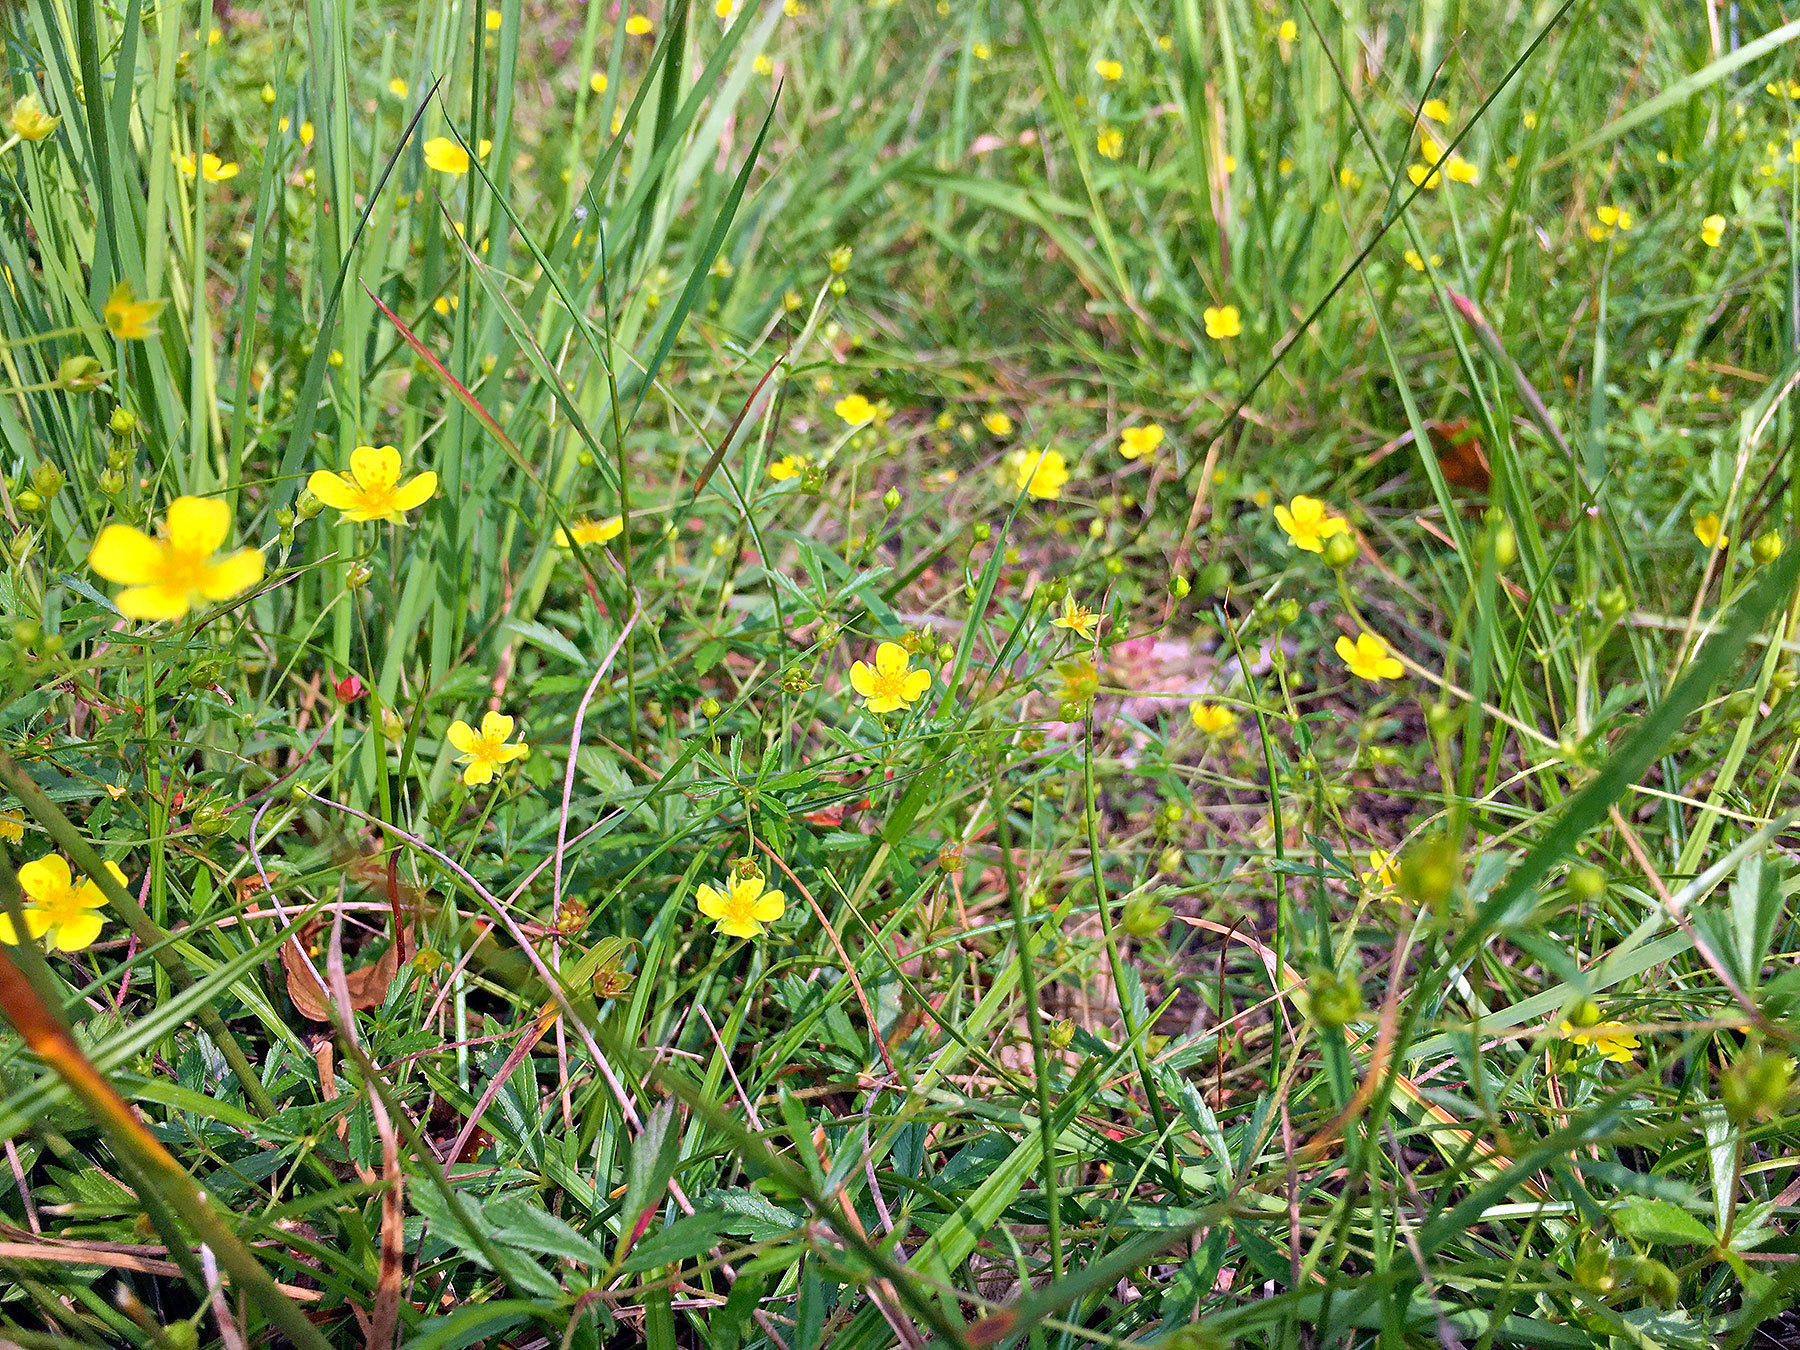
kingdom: Plantae
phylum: Tracheophyta
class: Magnoliopsida
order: Rosales
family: Rosaceae
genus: Potentilla
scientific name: Potentilla erecta
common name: Tormentil
